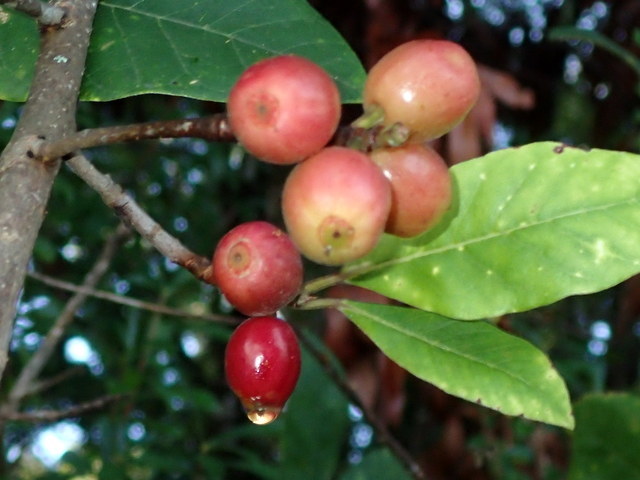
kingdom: Plantae
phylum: Tracheophyta
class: Magnoliopsida
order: Cornales
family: Nyssaceae
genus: Nyssa
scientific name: Nyssa ogeche
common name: Ogeechee tupelo
